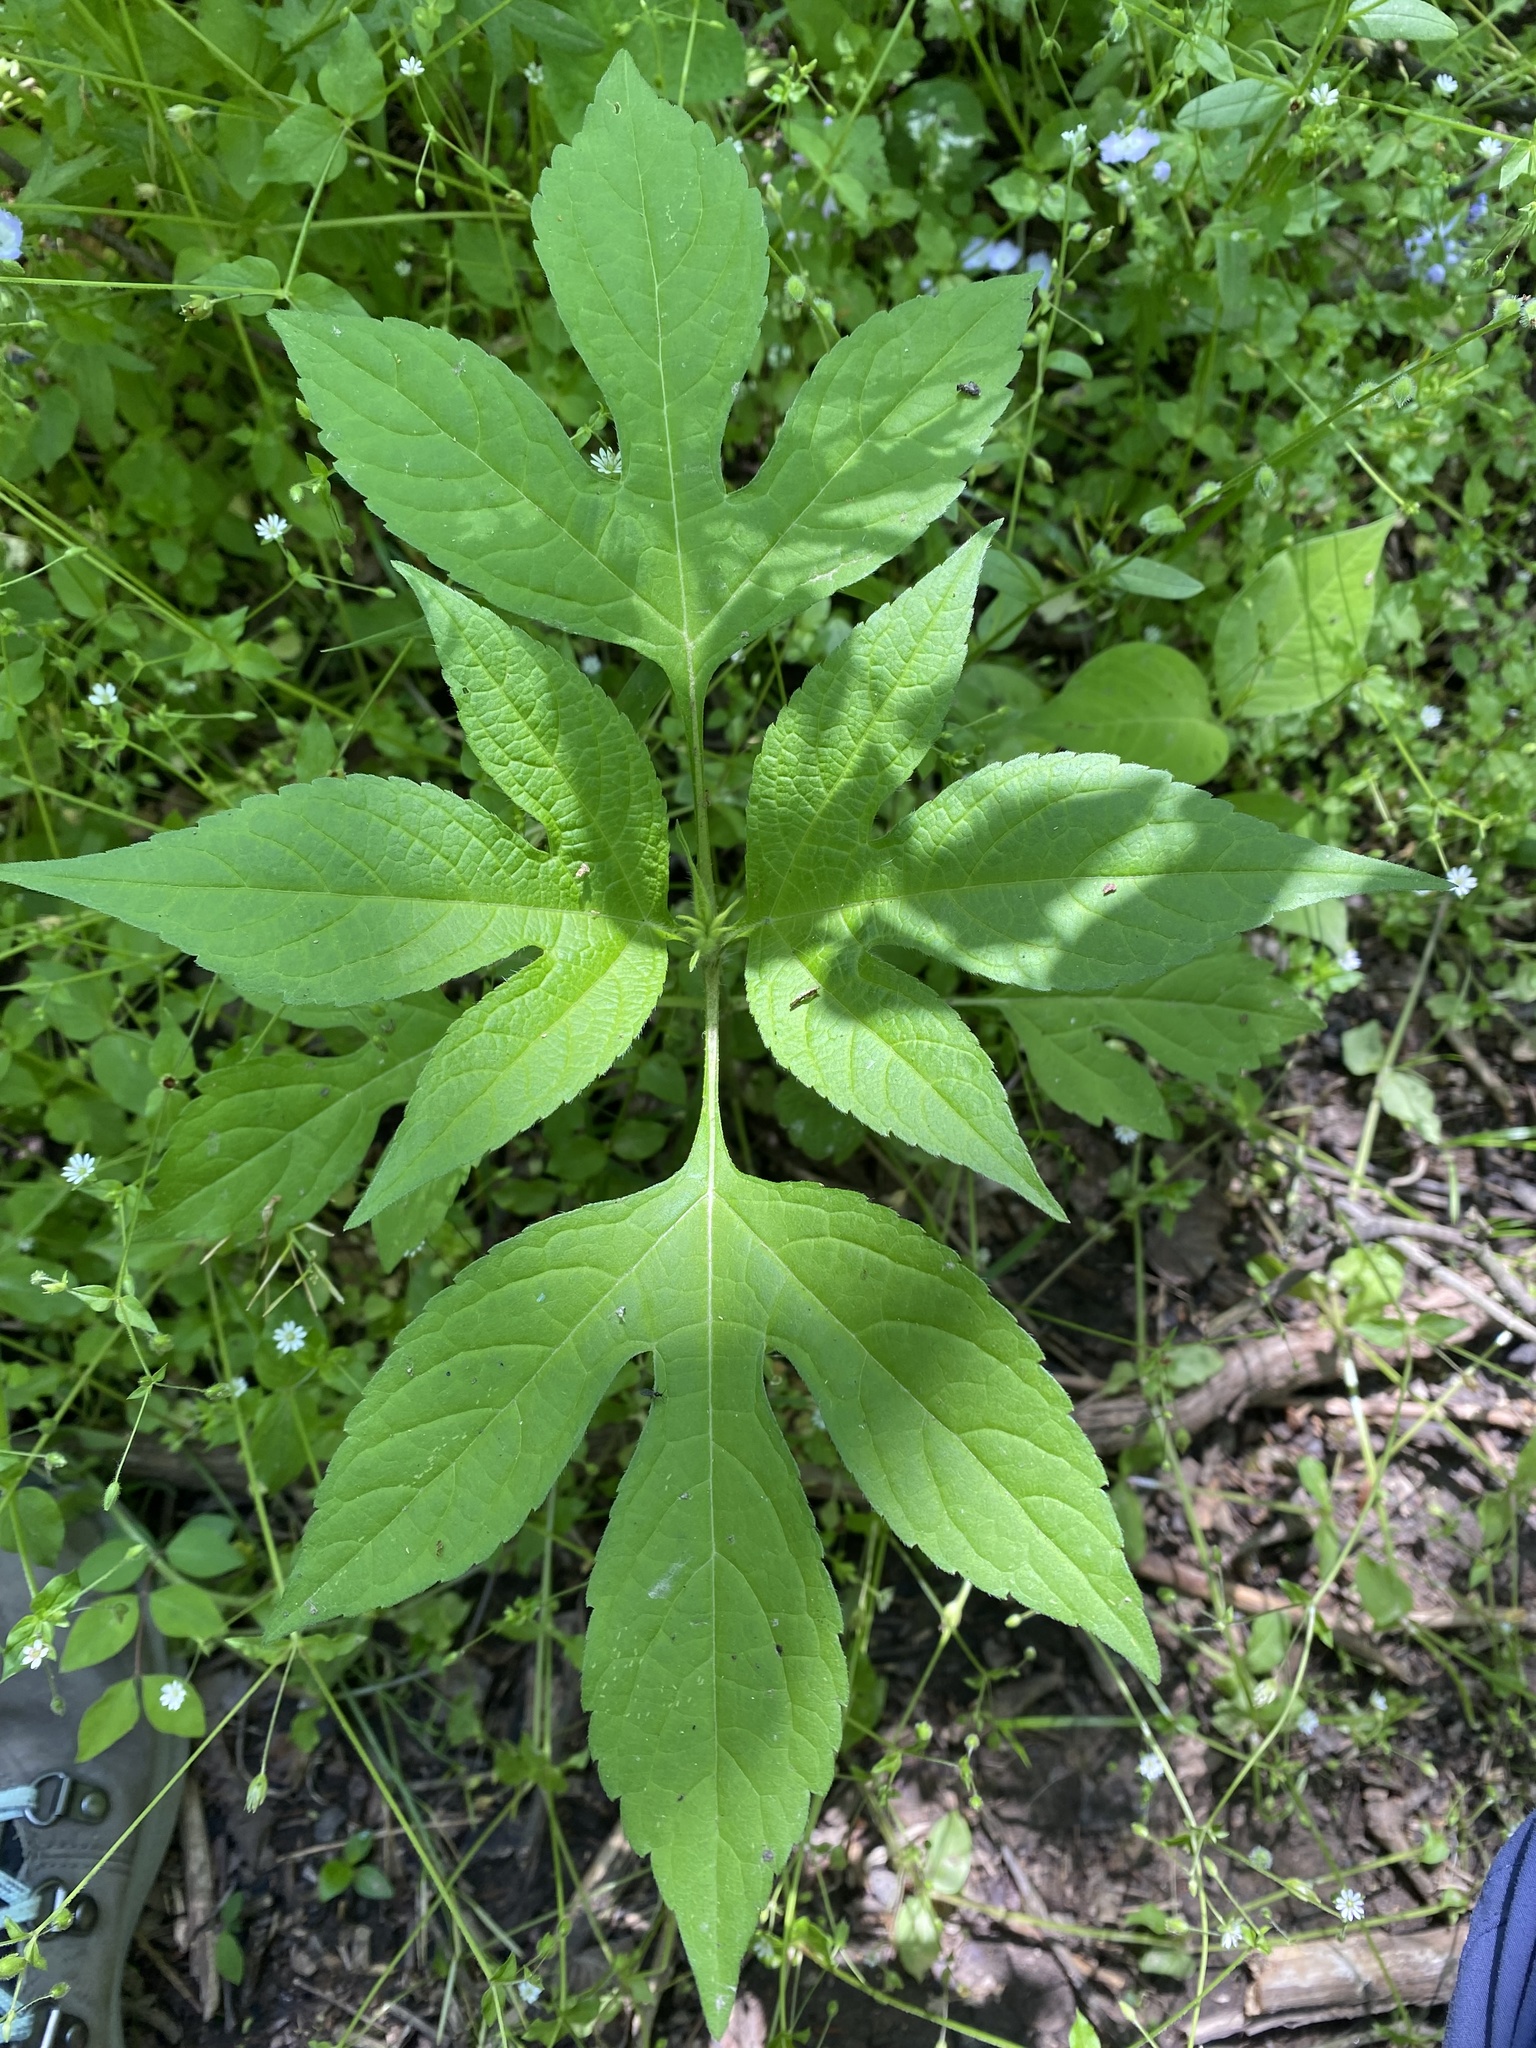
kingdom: Plantae
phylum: Tracheophyta
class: Magnoliopsida
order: Asterales
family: Asteraceae
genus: Ambrosia
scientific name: Ambrosia trifida
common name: Giant ragweed
